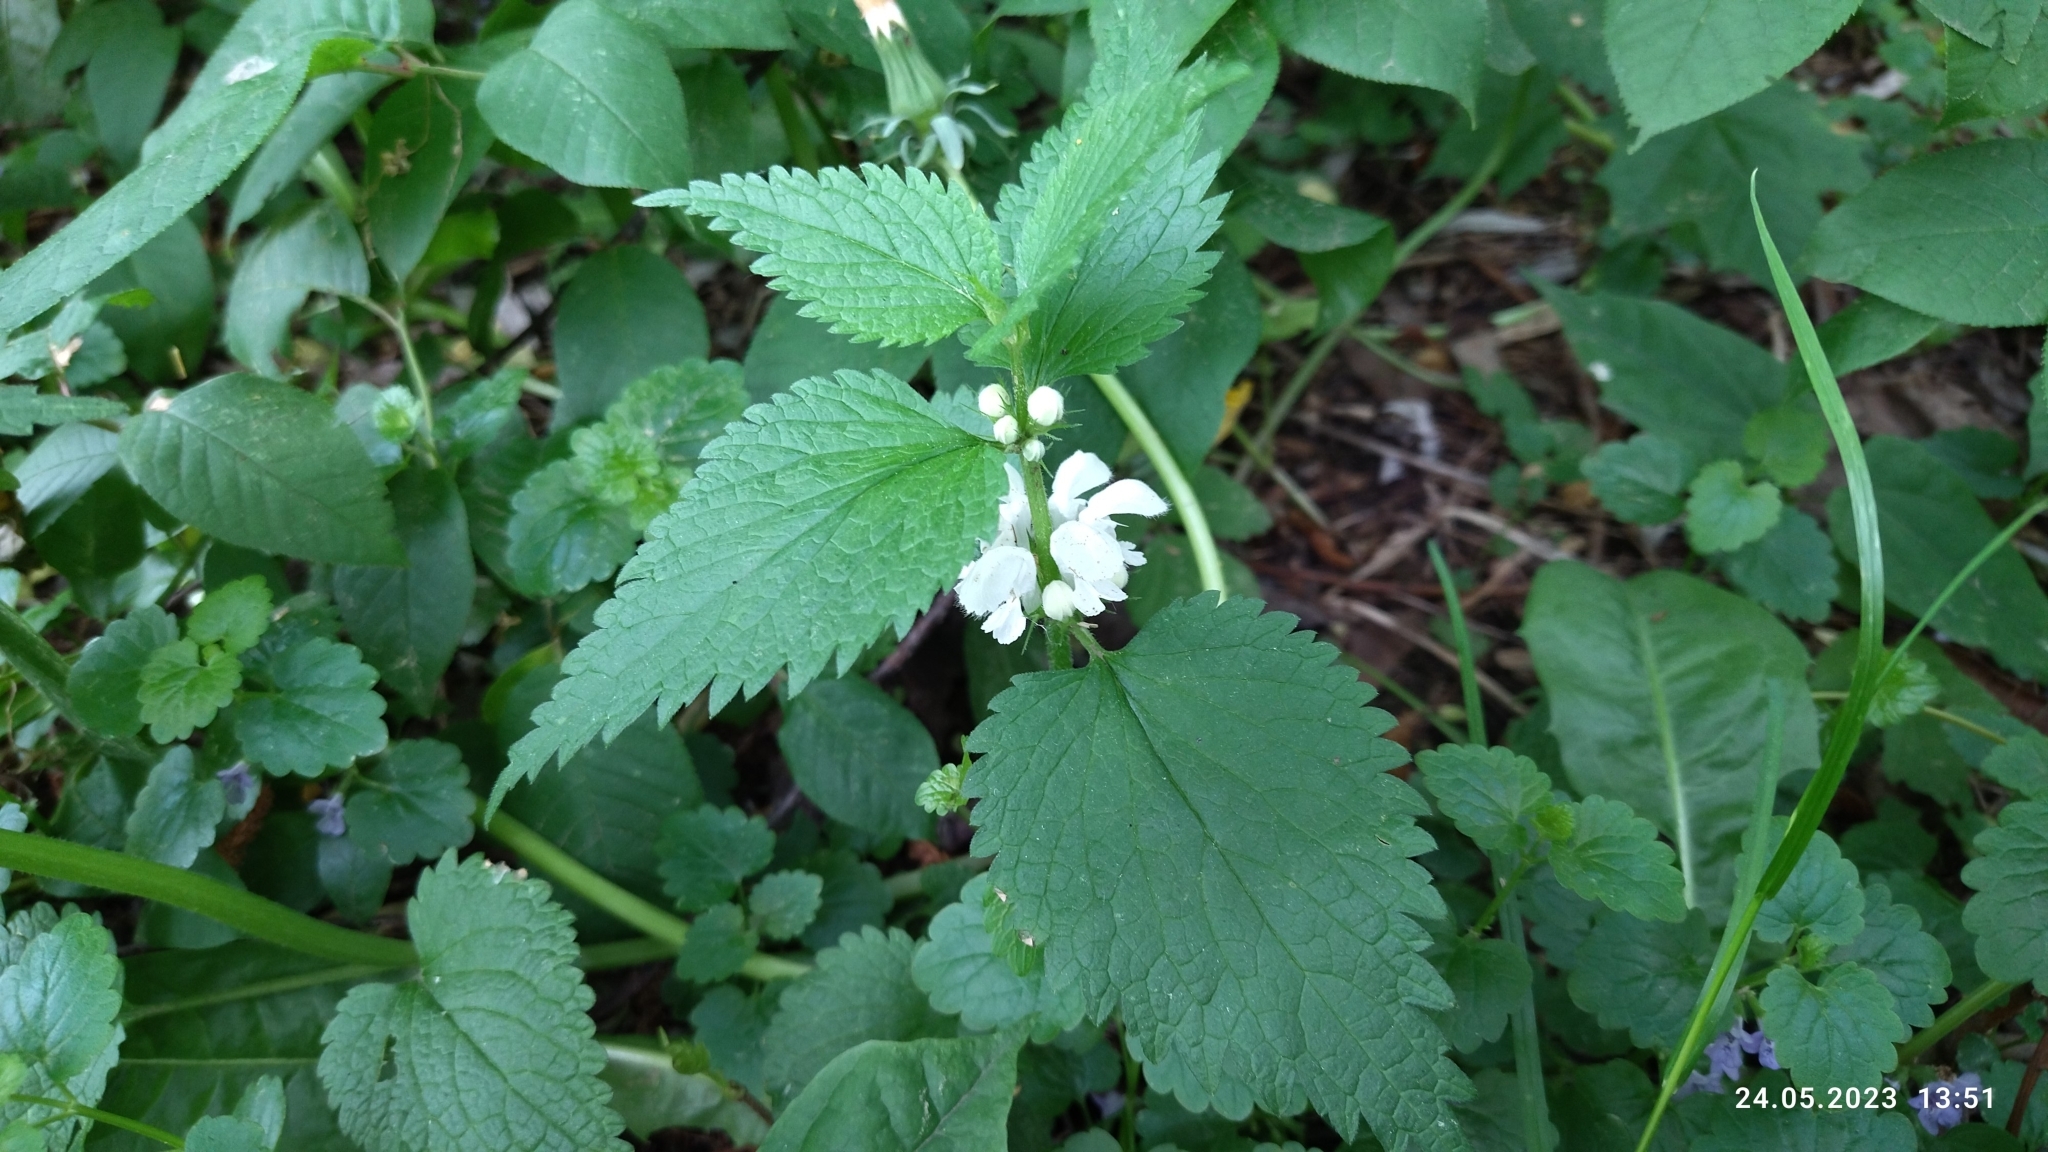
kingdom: Plantae
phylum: Tracheophyta
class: Magnoliopsida
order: Lamiales
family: Lamiaceae
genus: Lamium
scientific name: Lamium album
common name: White dead-nettle
